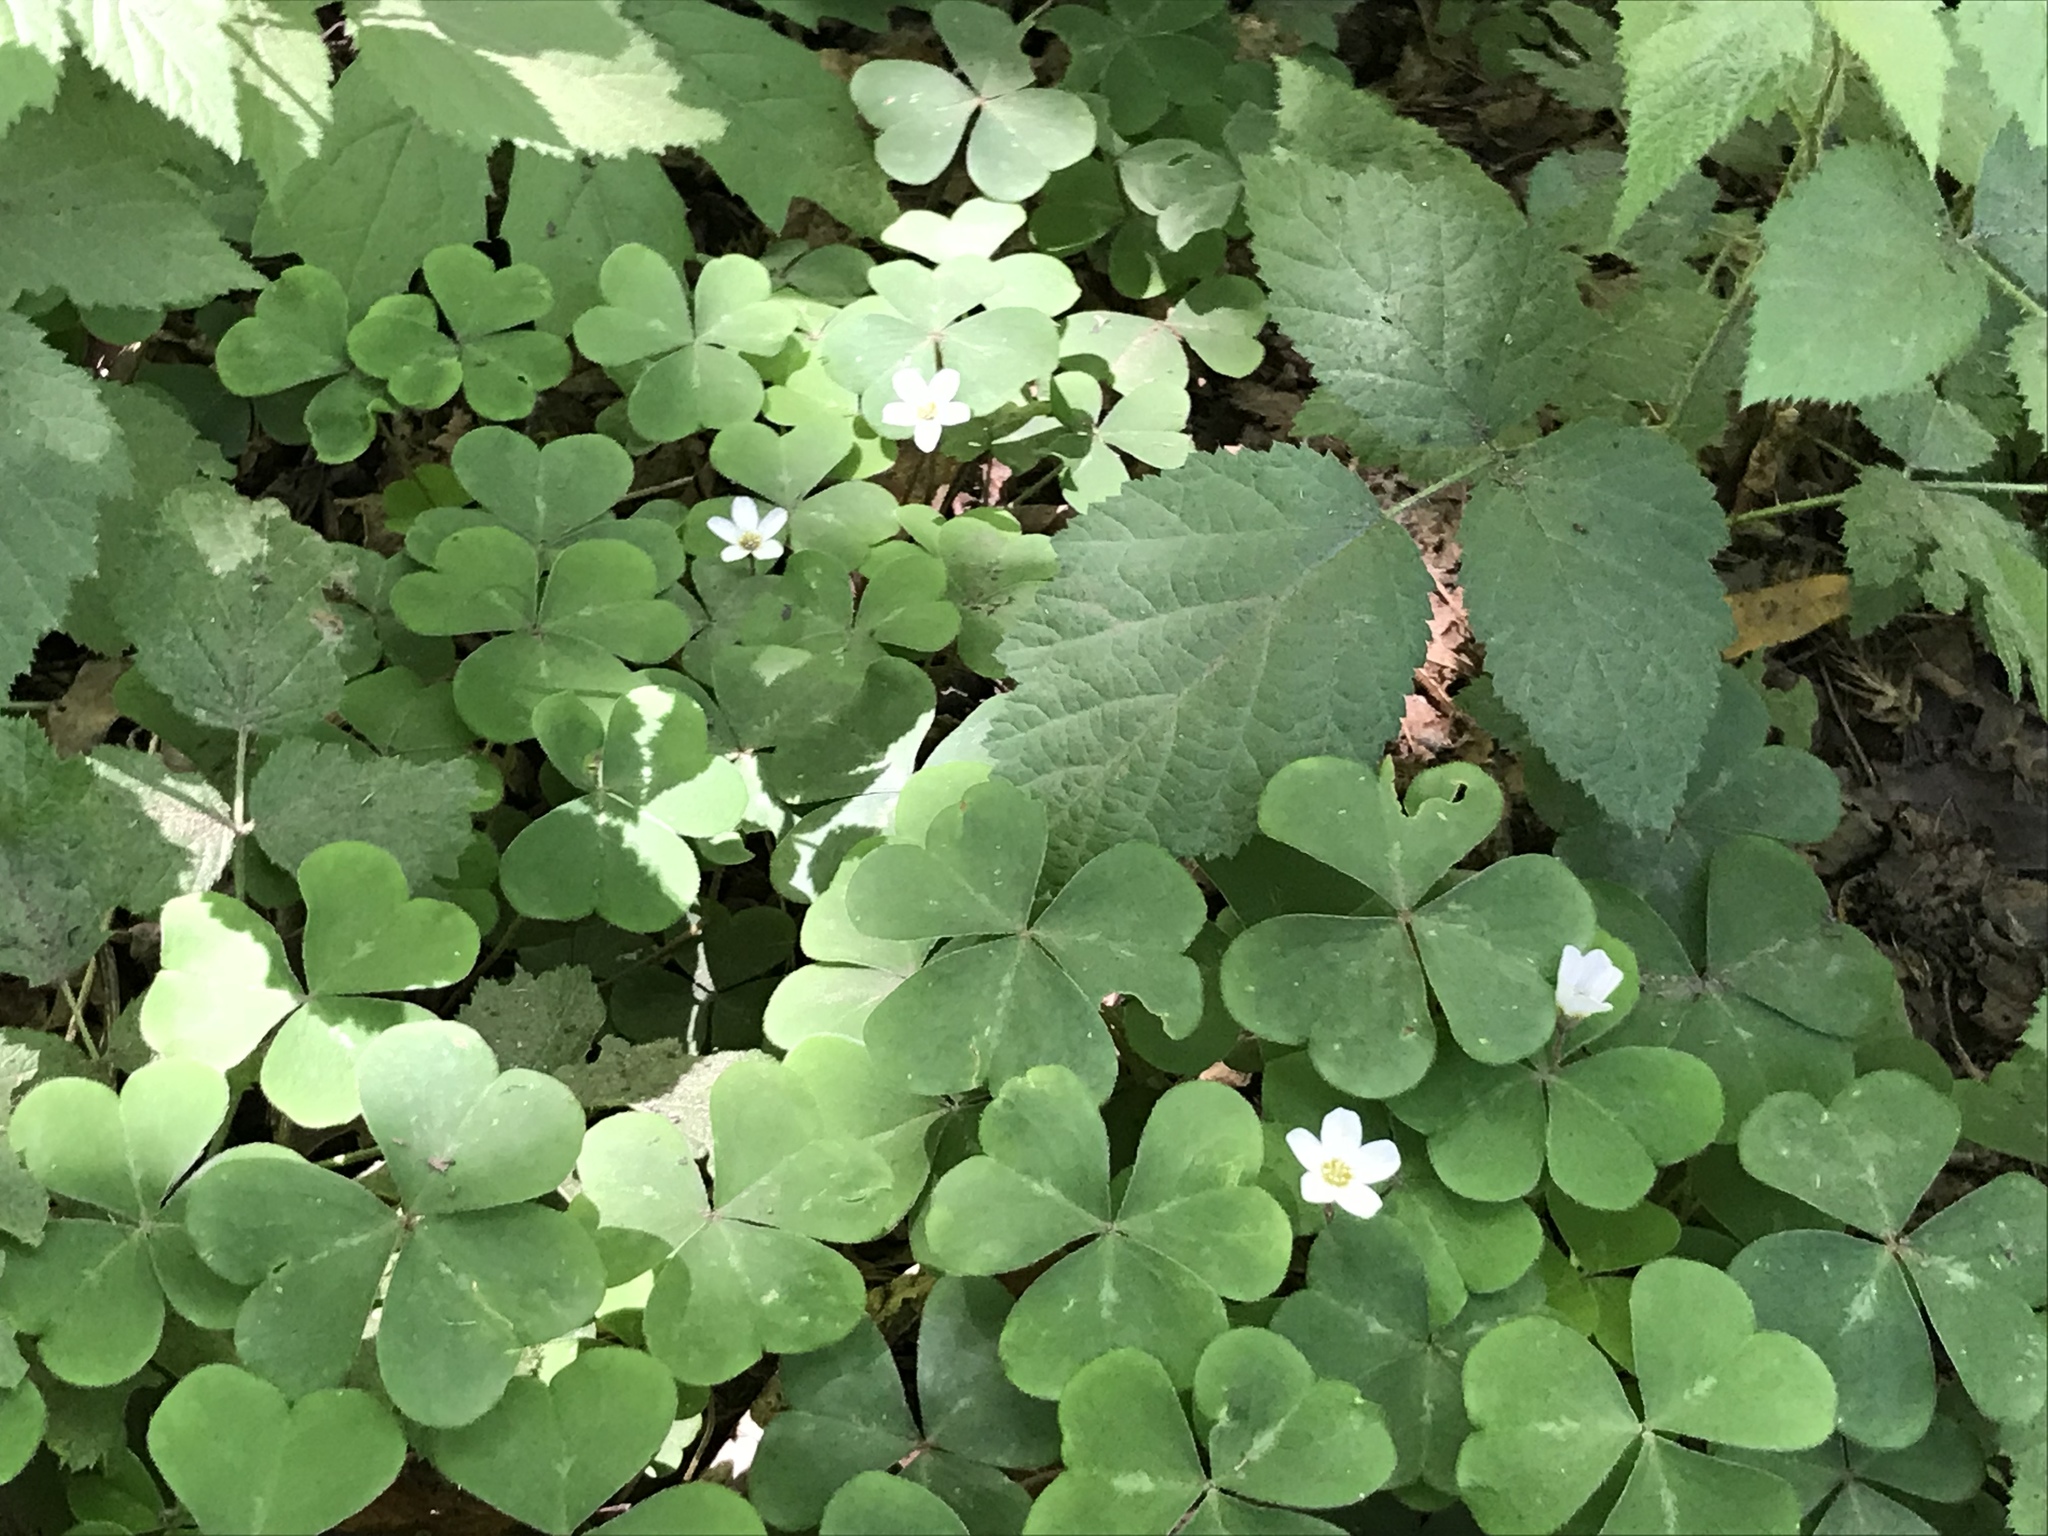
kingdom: Plantae
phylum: Tracheophyta
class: Magnoliopsida
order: Oxalidales
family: Oxalidaceae
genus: Oxalis
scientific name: Oxalis oregana
